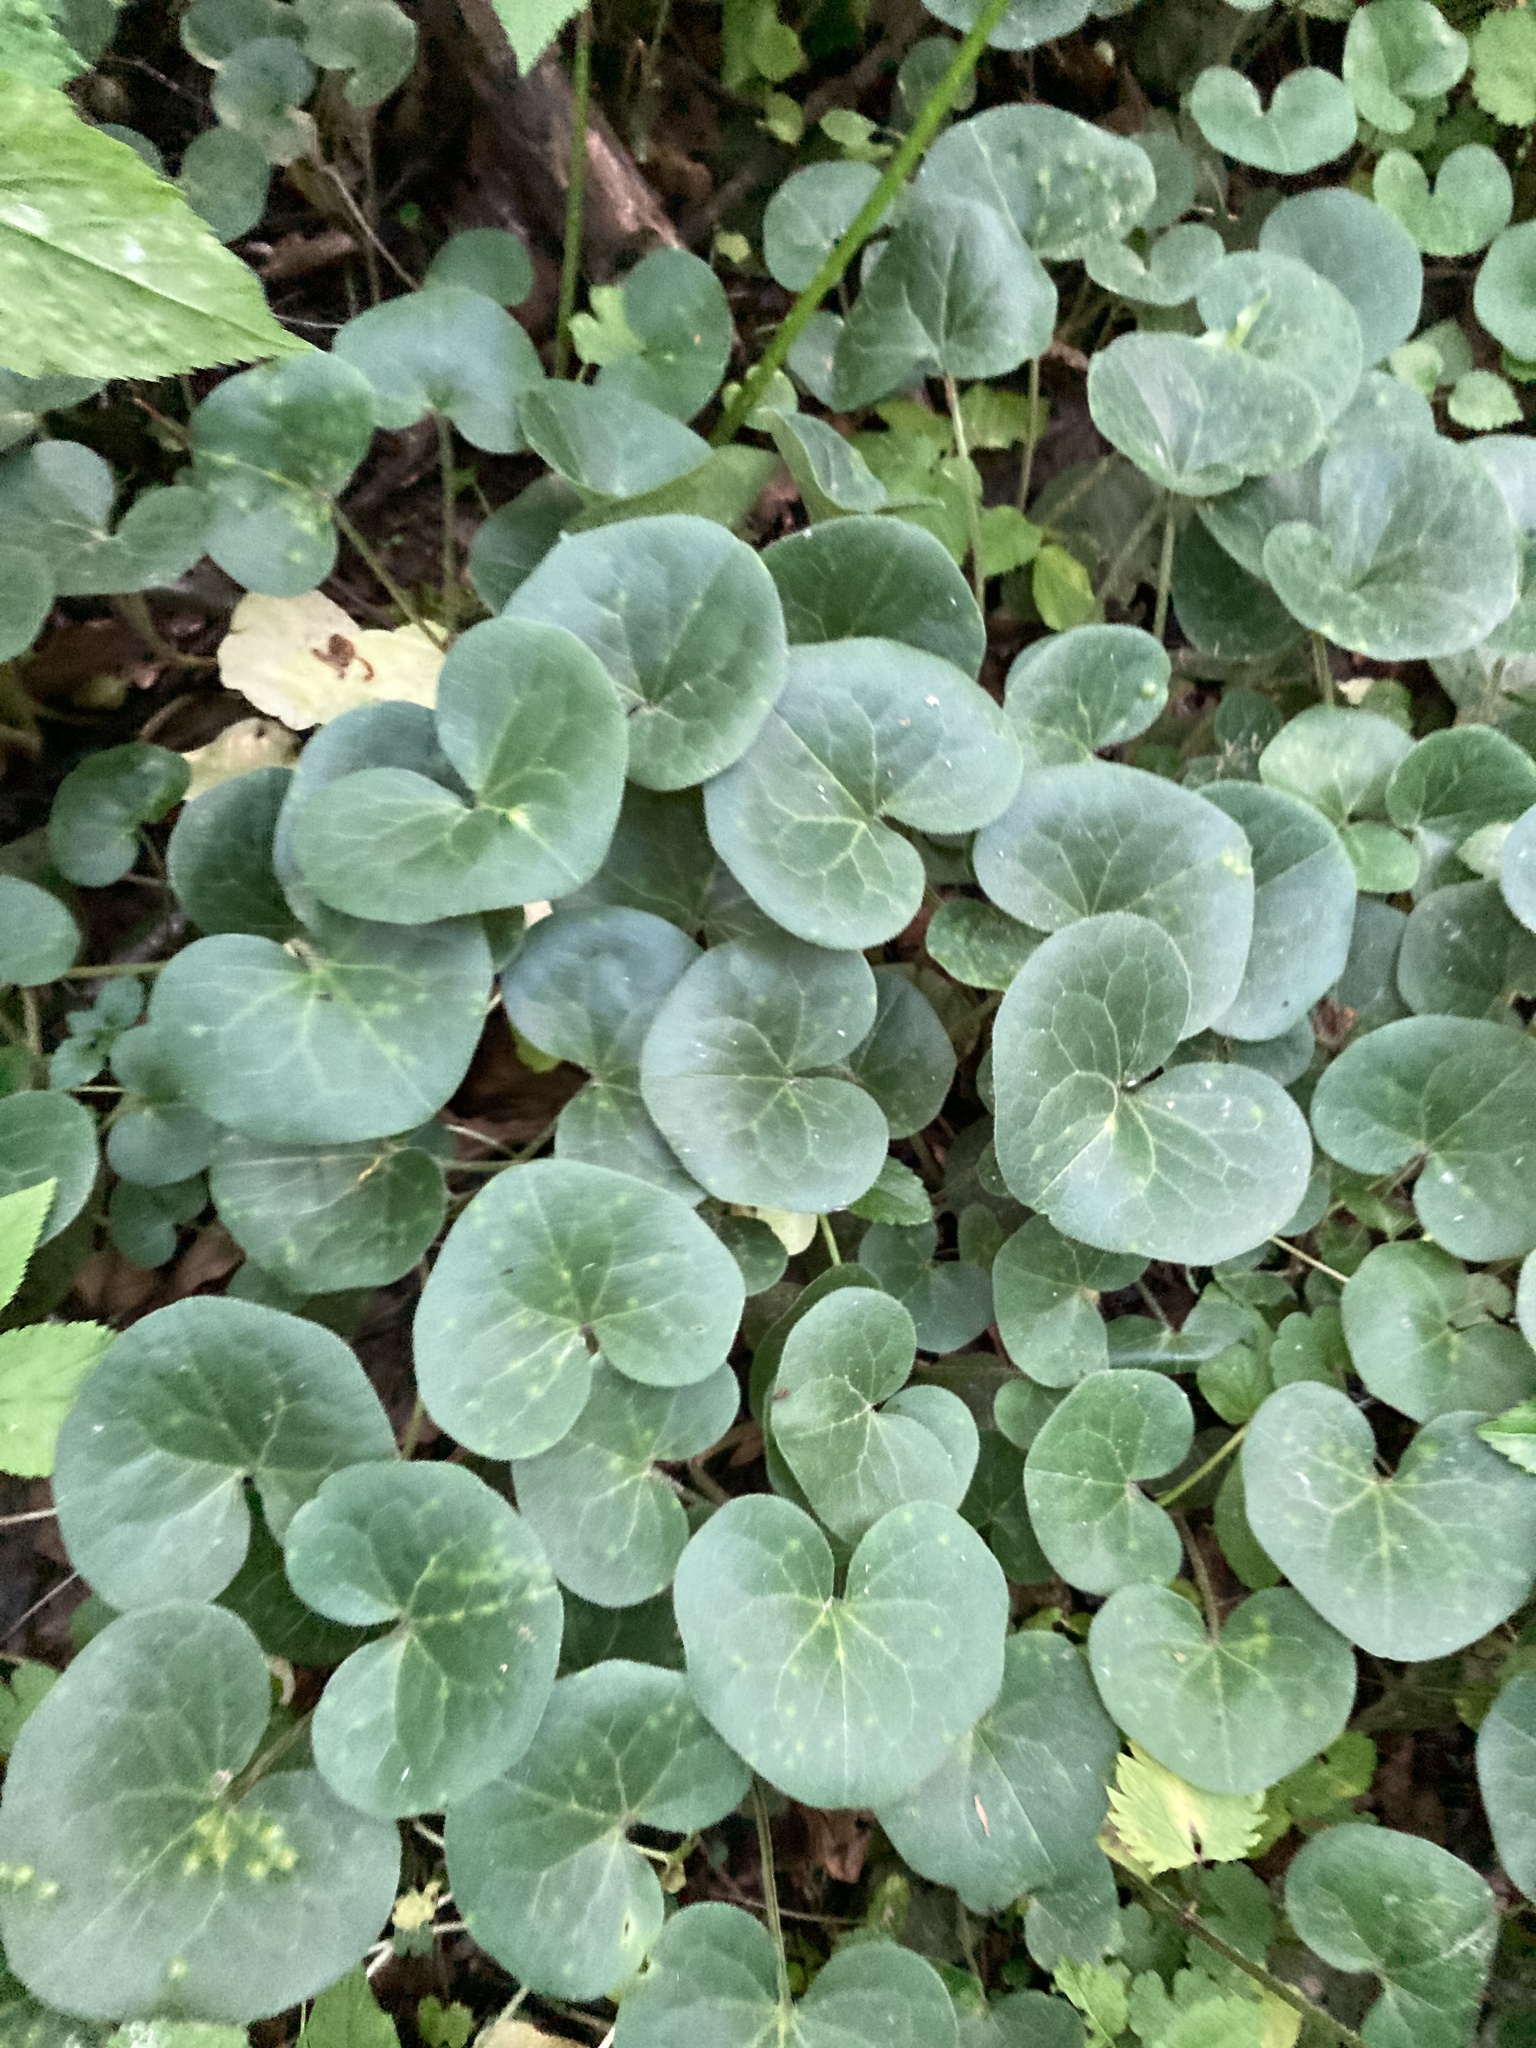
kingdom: Plantae
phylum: Tracheophyta
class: Magnoliopsida
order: Piperales
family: Aristolochiaceae
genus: Asarum
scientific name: Asarum europaeum
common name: Asarabacca
